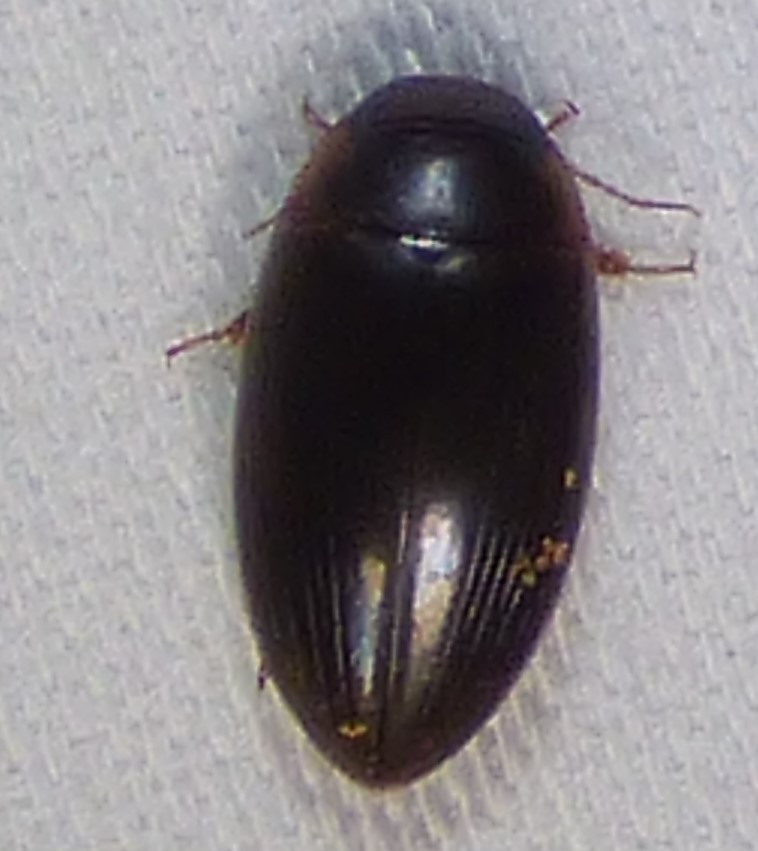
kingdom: Animalia
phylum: Arthropoda
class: Insecta
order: Coleoptera
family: Dytiscidae
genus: Copelatus
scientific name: Copelatus chevrolati
